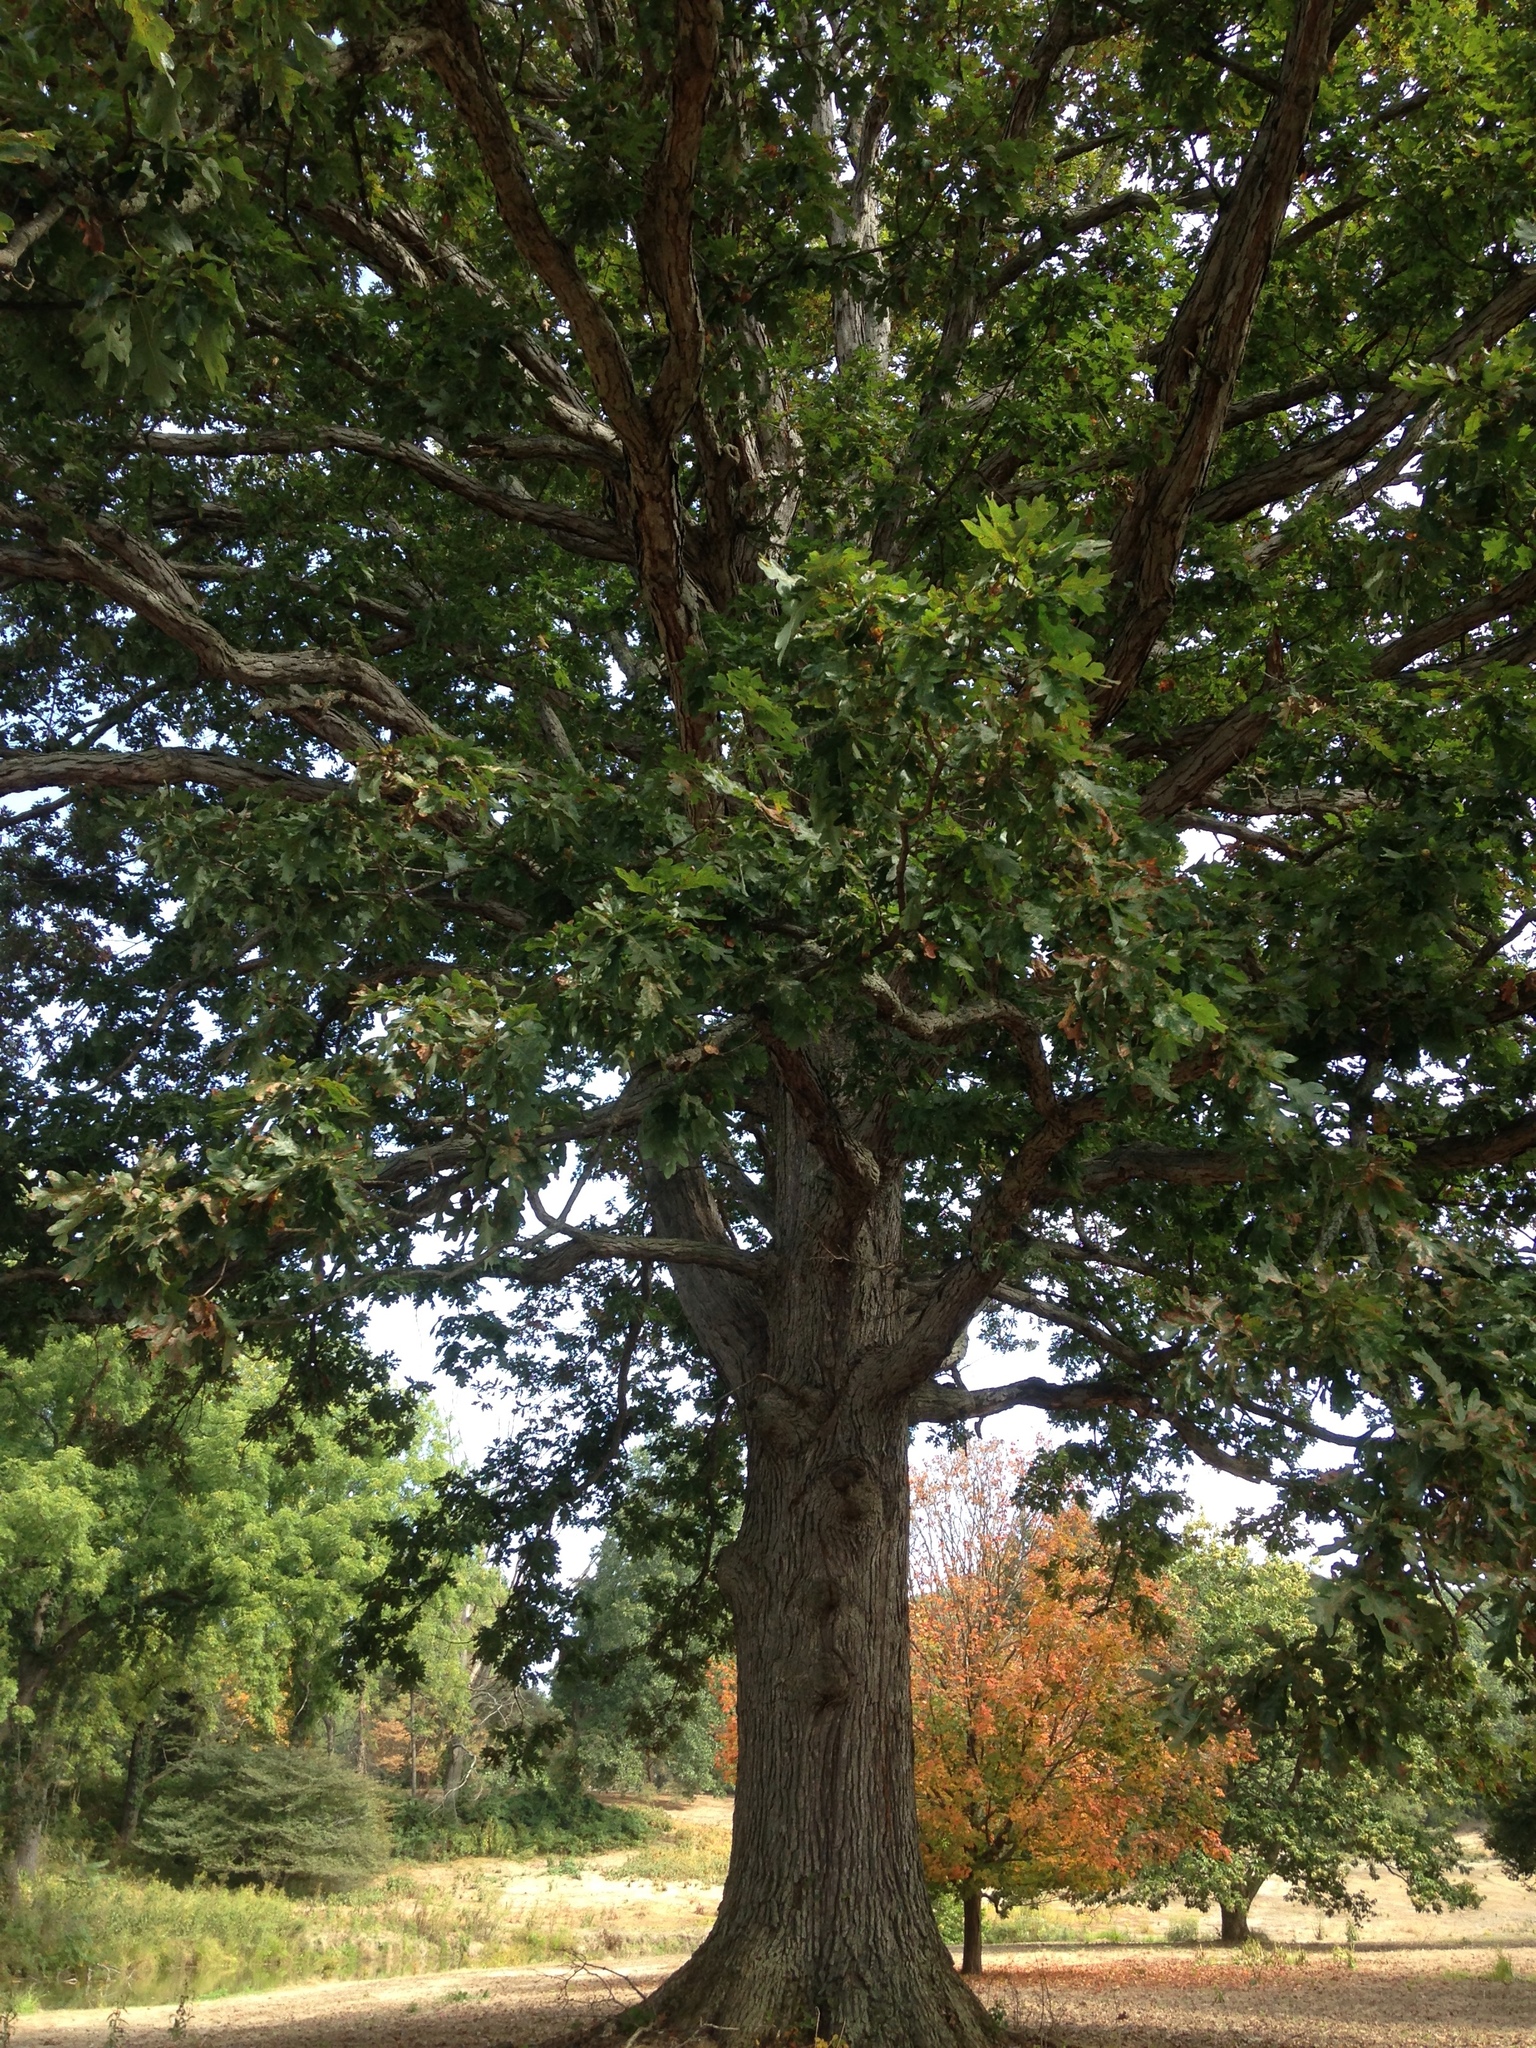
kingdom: Plantae
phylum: Tracheophyta
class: Magnoliopsida
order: Fagales
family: Fagaceae
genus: Quercus
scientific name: Quercus alba
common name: White oak
